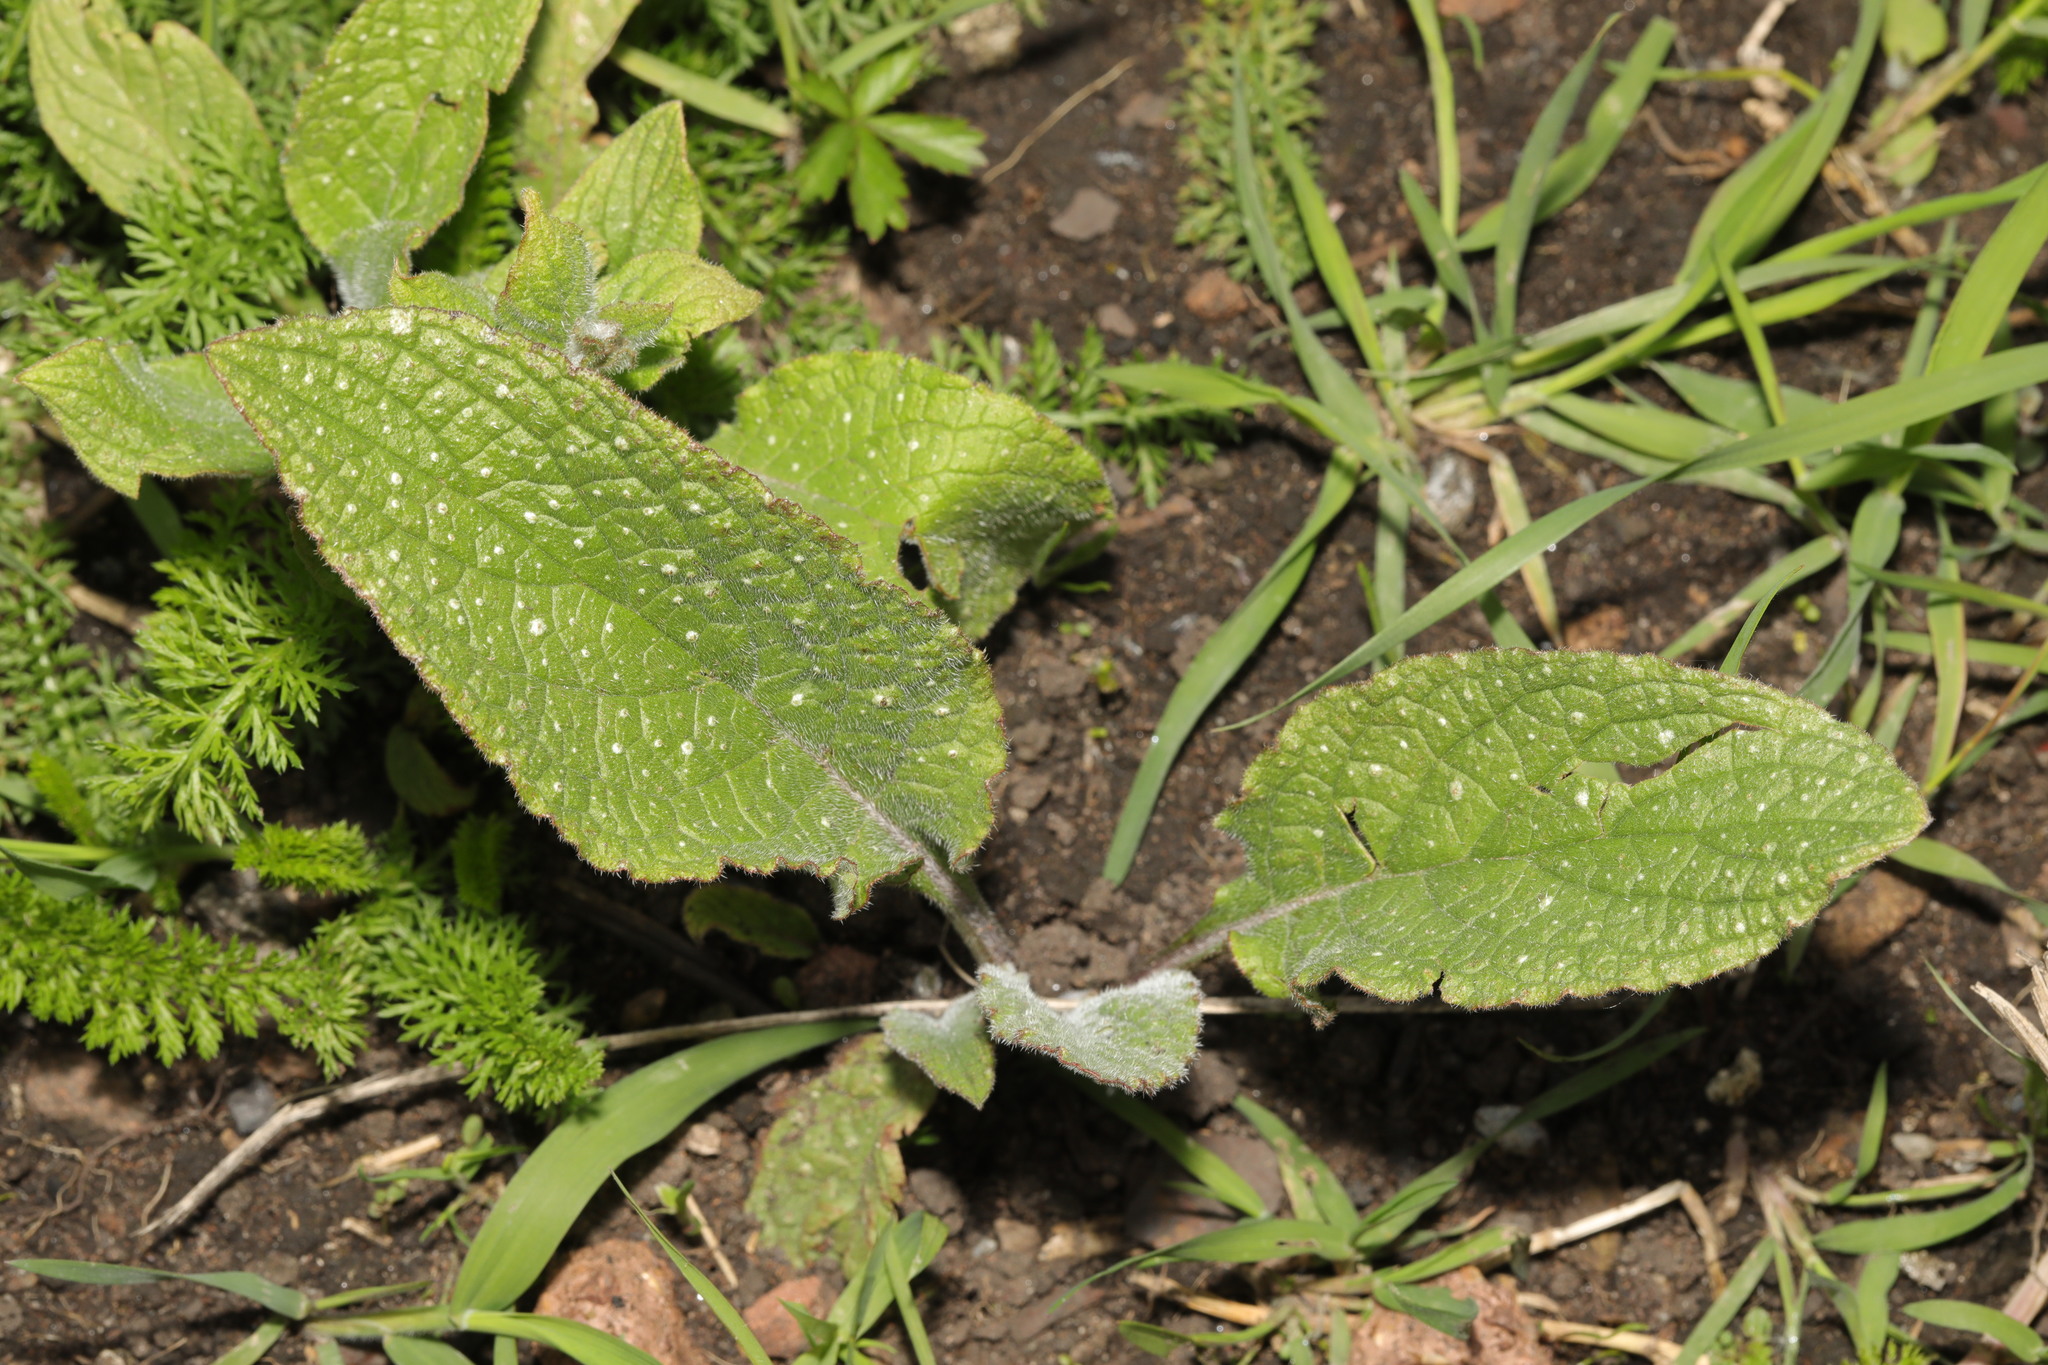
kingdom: Plantae
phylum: Tracheophyta
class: Magnoliopsida
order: Lamiales
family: Plantaginaceae
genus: Digitalis
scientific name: Digitalis purpurea
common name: Foxglove
